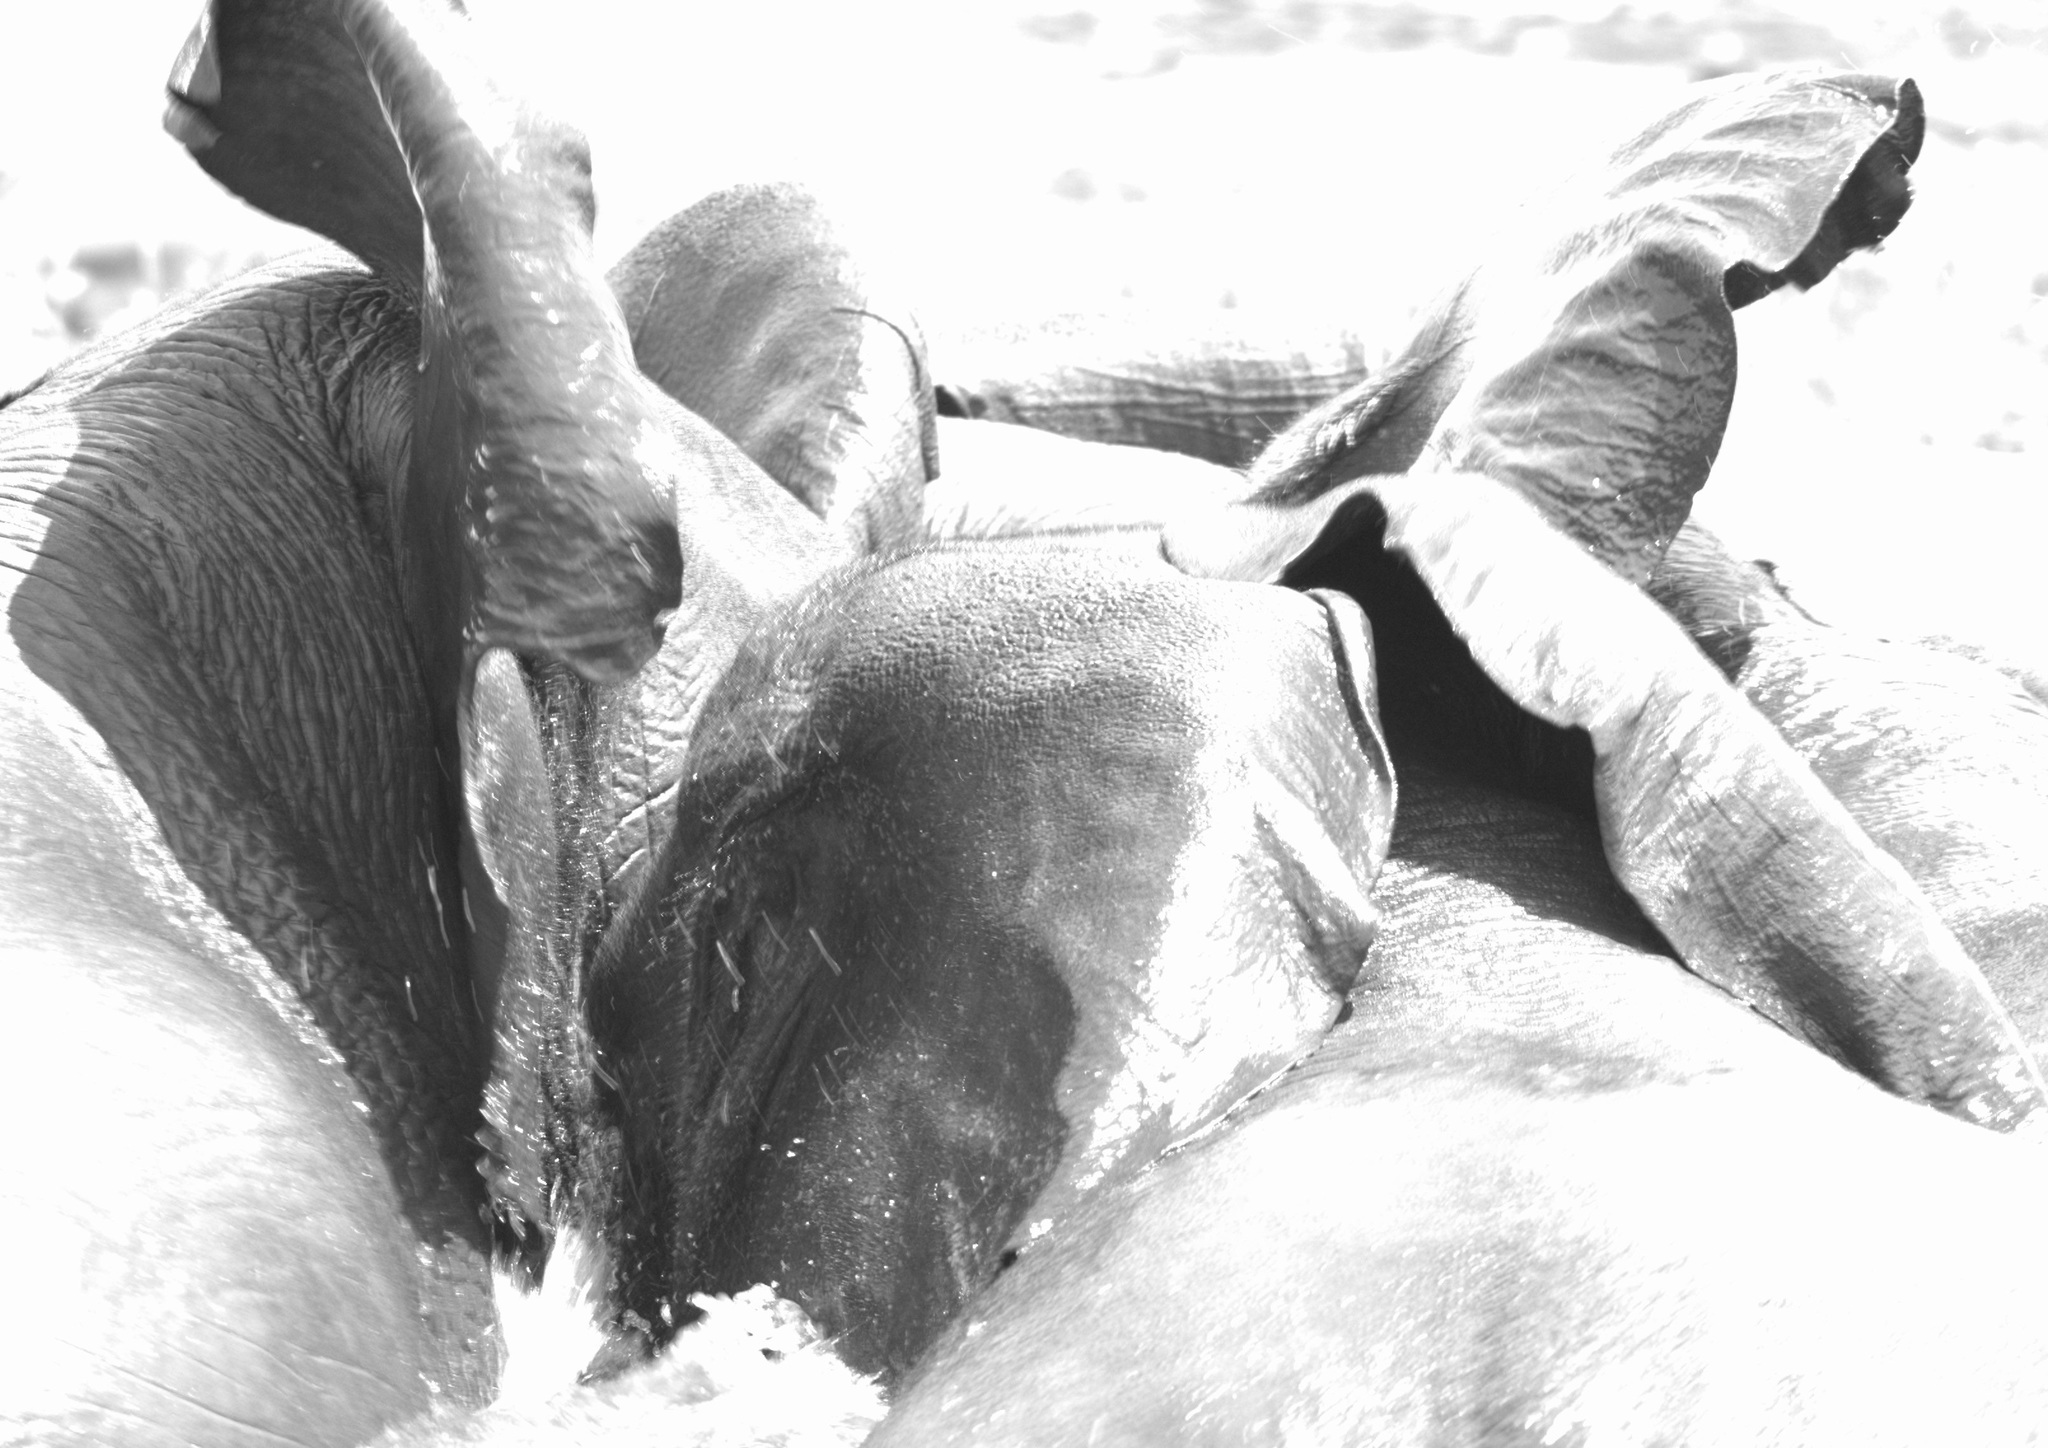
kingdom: Animalia
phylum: Chordata
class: Mammalia
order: Proboscidea
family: Elephantidae
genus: Loxodonta
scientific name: Loxodonta africana
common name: African elephant
